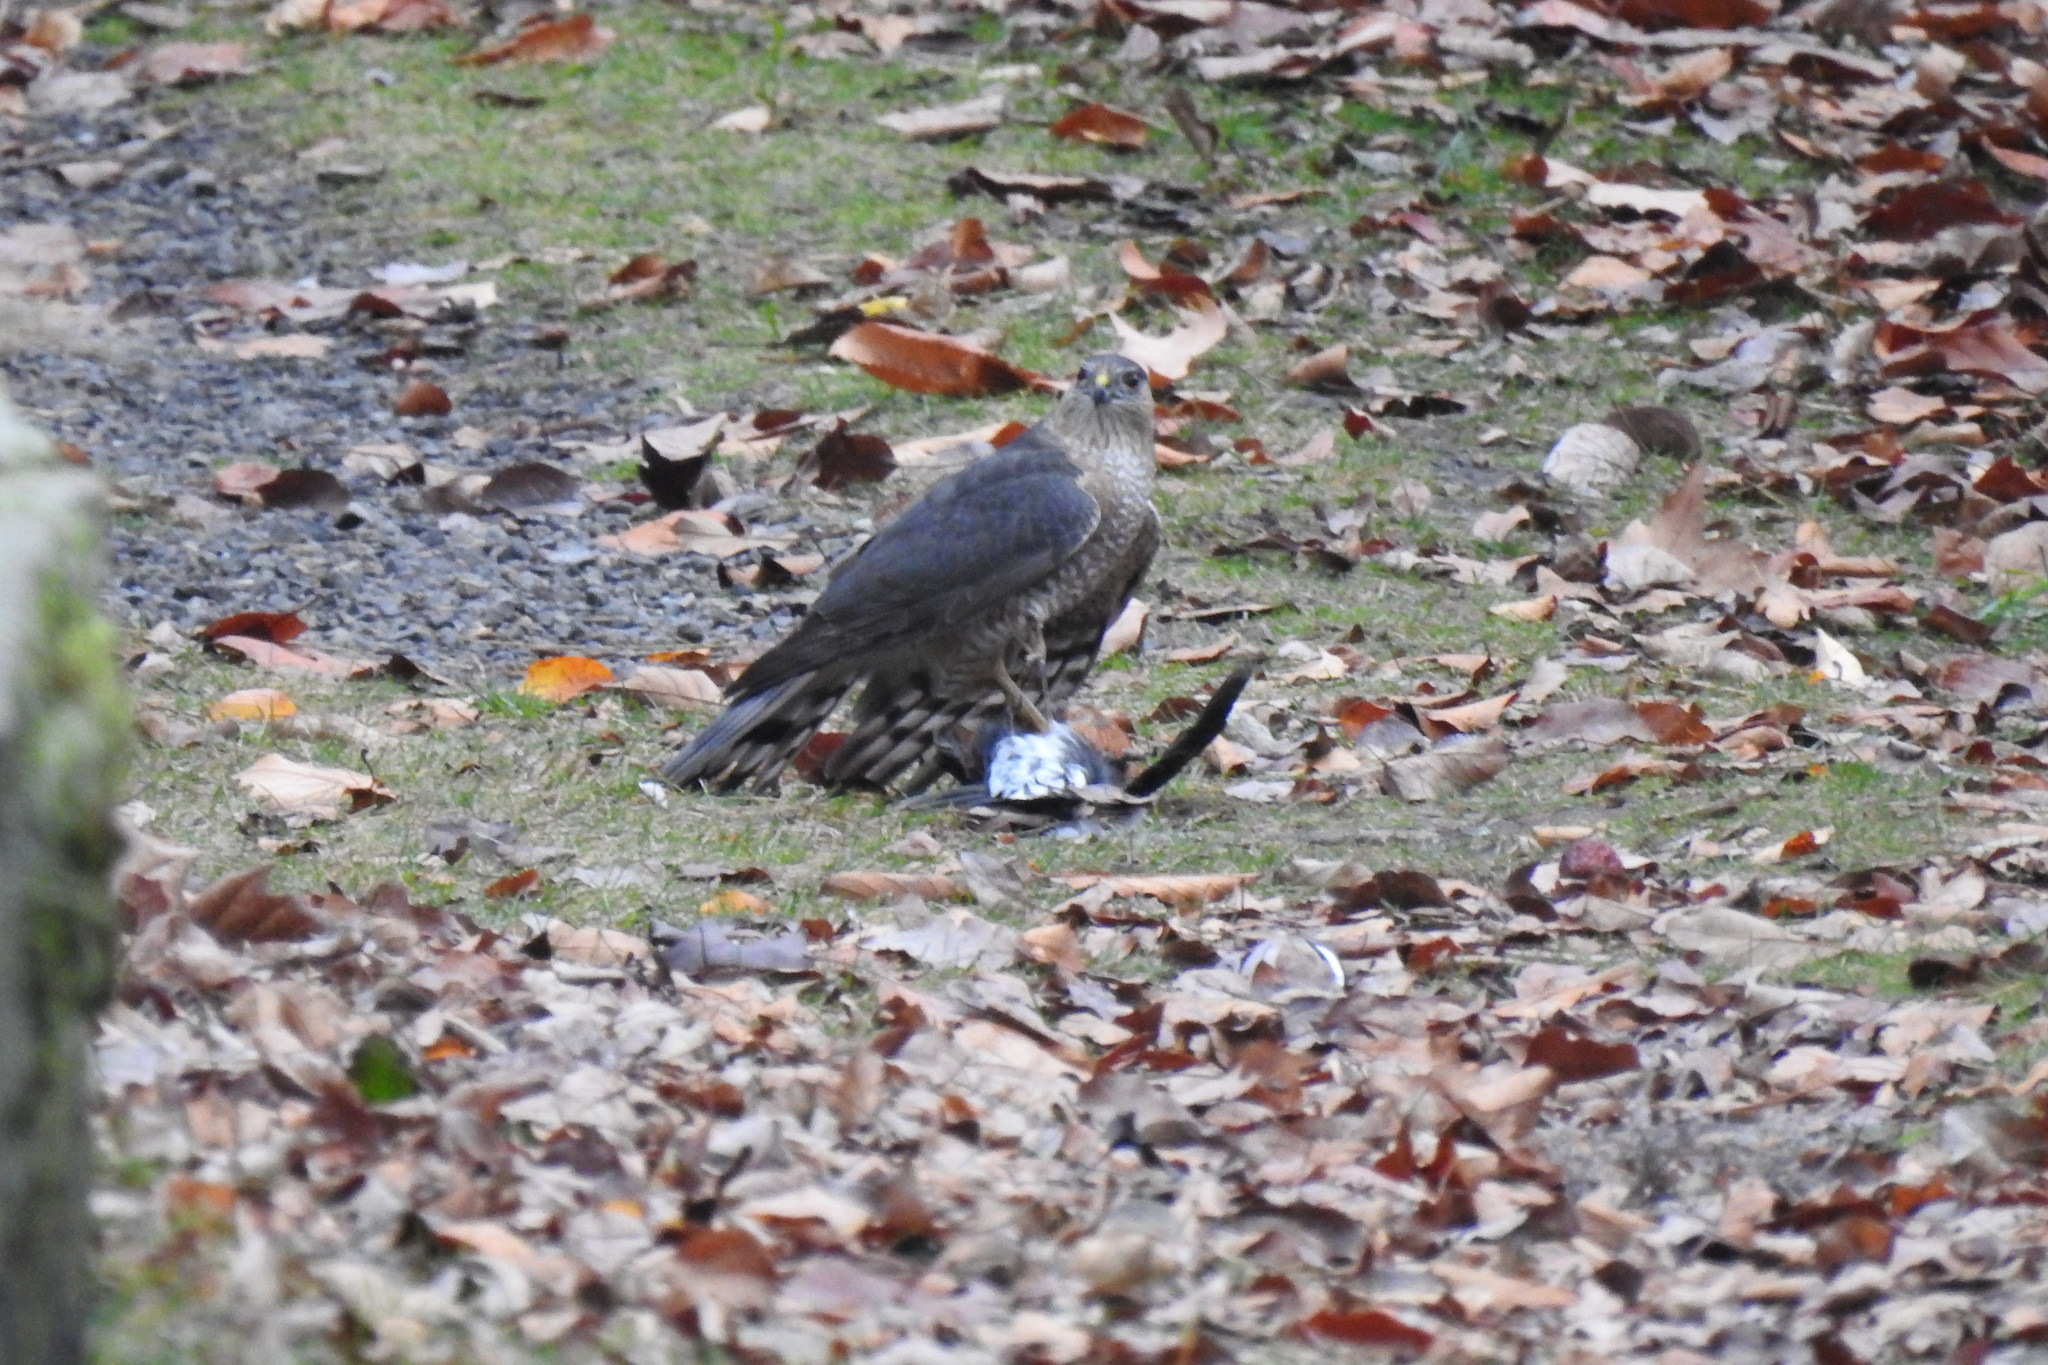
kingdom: Animalia
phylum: Chordata
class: Aves
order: Accipitriformes
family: Accipitridae
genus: Accipiter
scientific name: Accipiter striatus
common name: Sharp-shinned hawk
